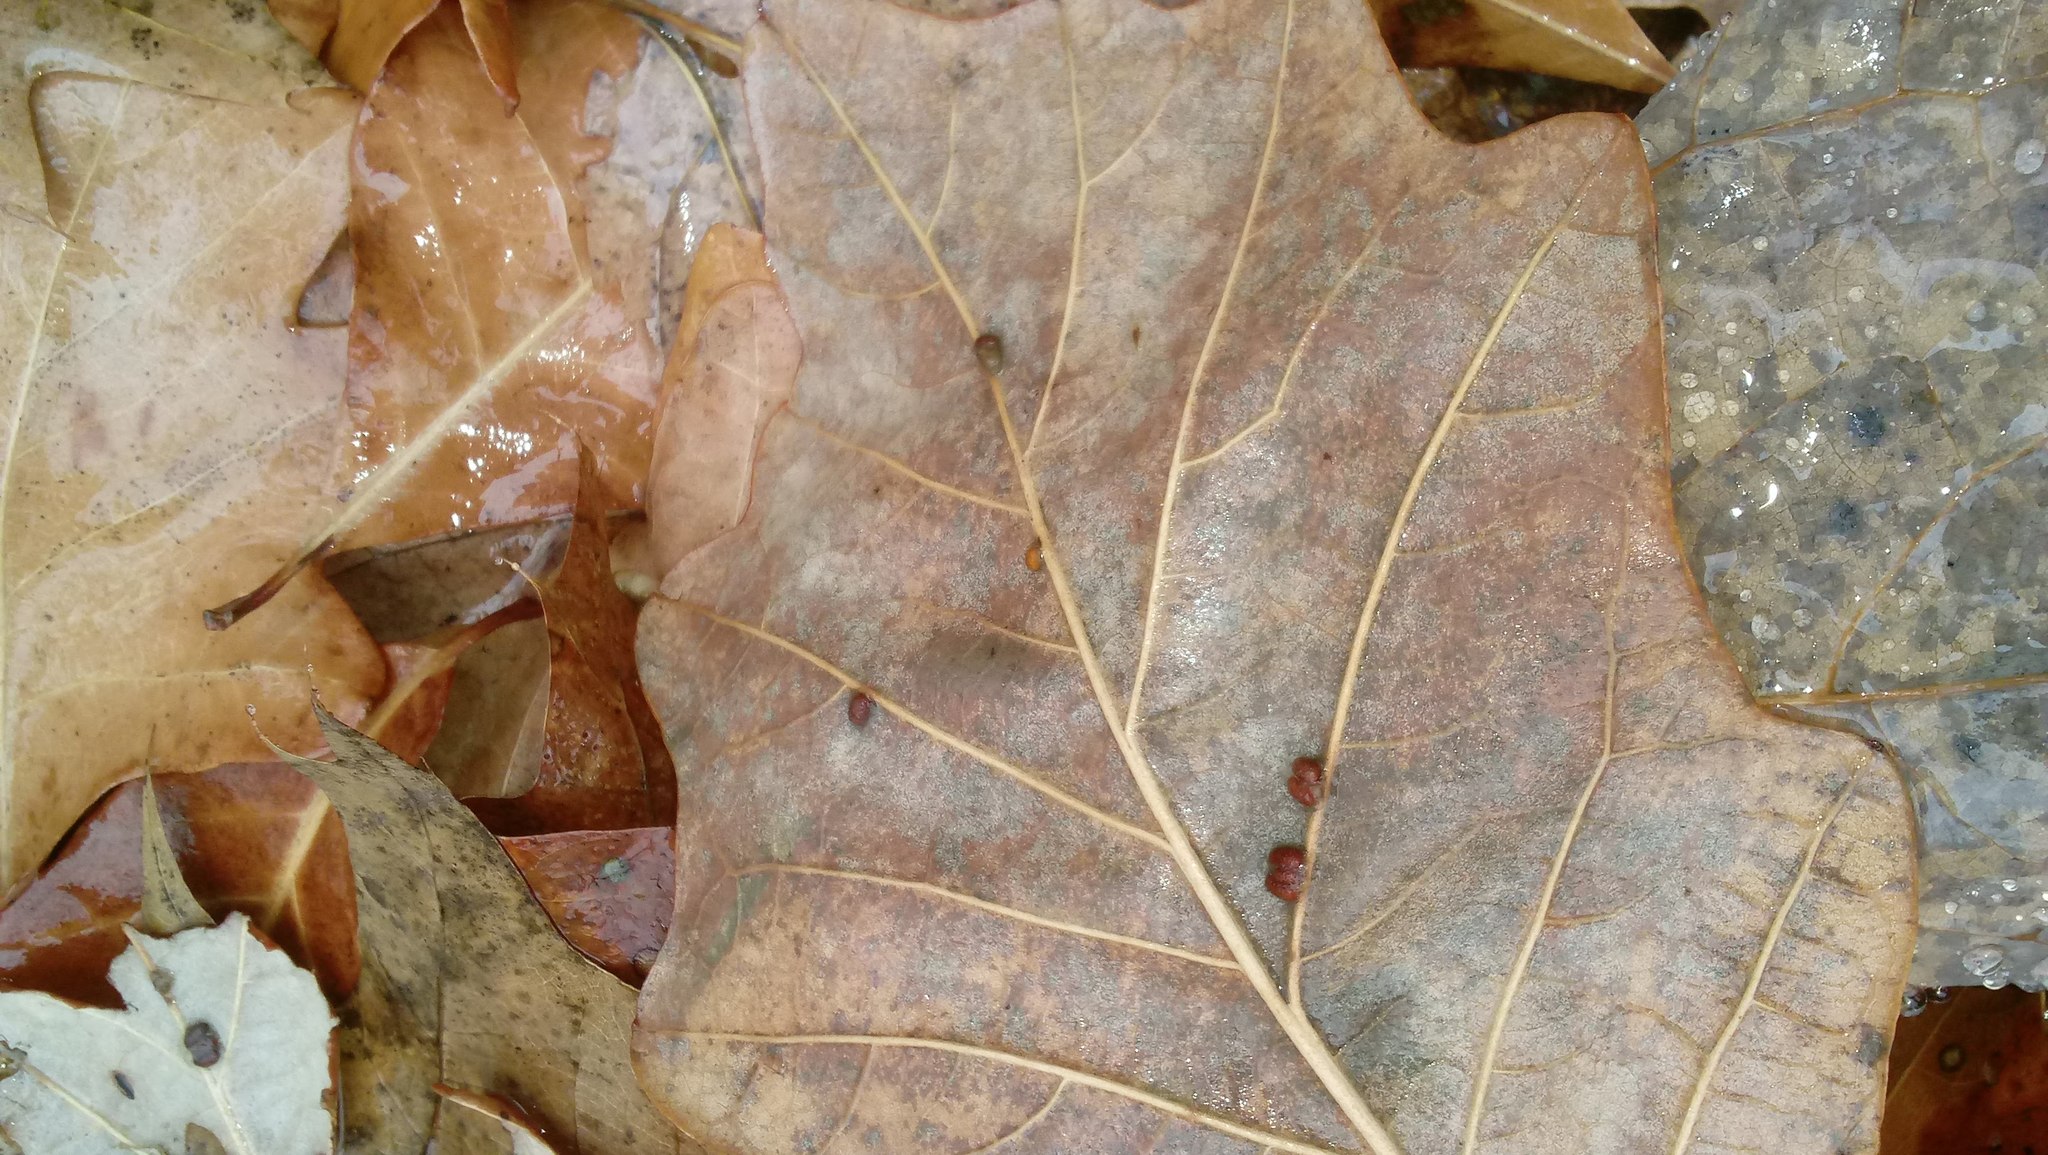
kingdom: Animalia
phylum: Arthropoda
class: Insecta
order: Hymenoptera
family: Cynipidae
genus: Andricus
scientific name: Andricus Druon ignotum
